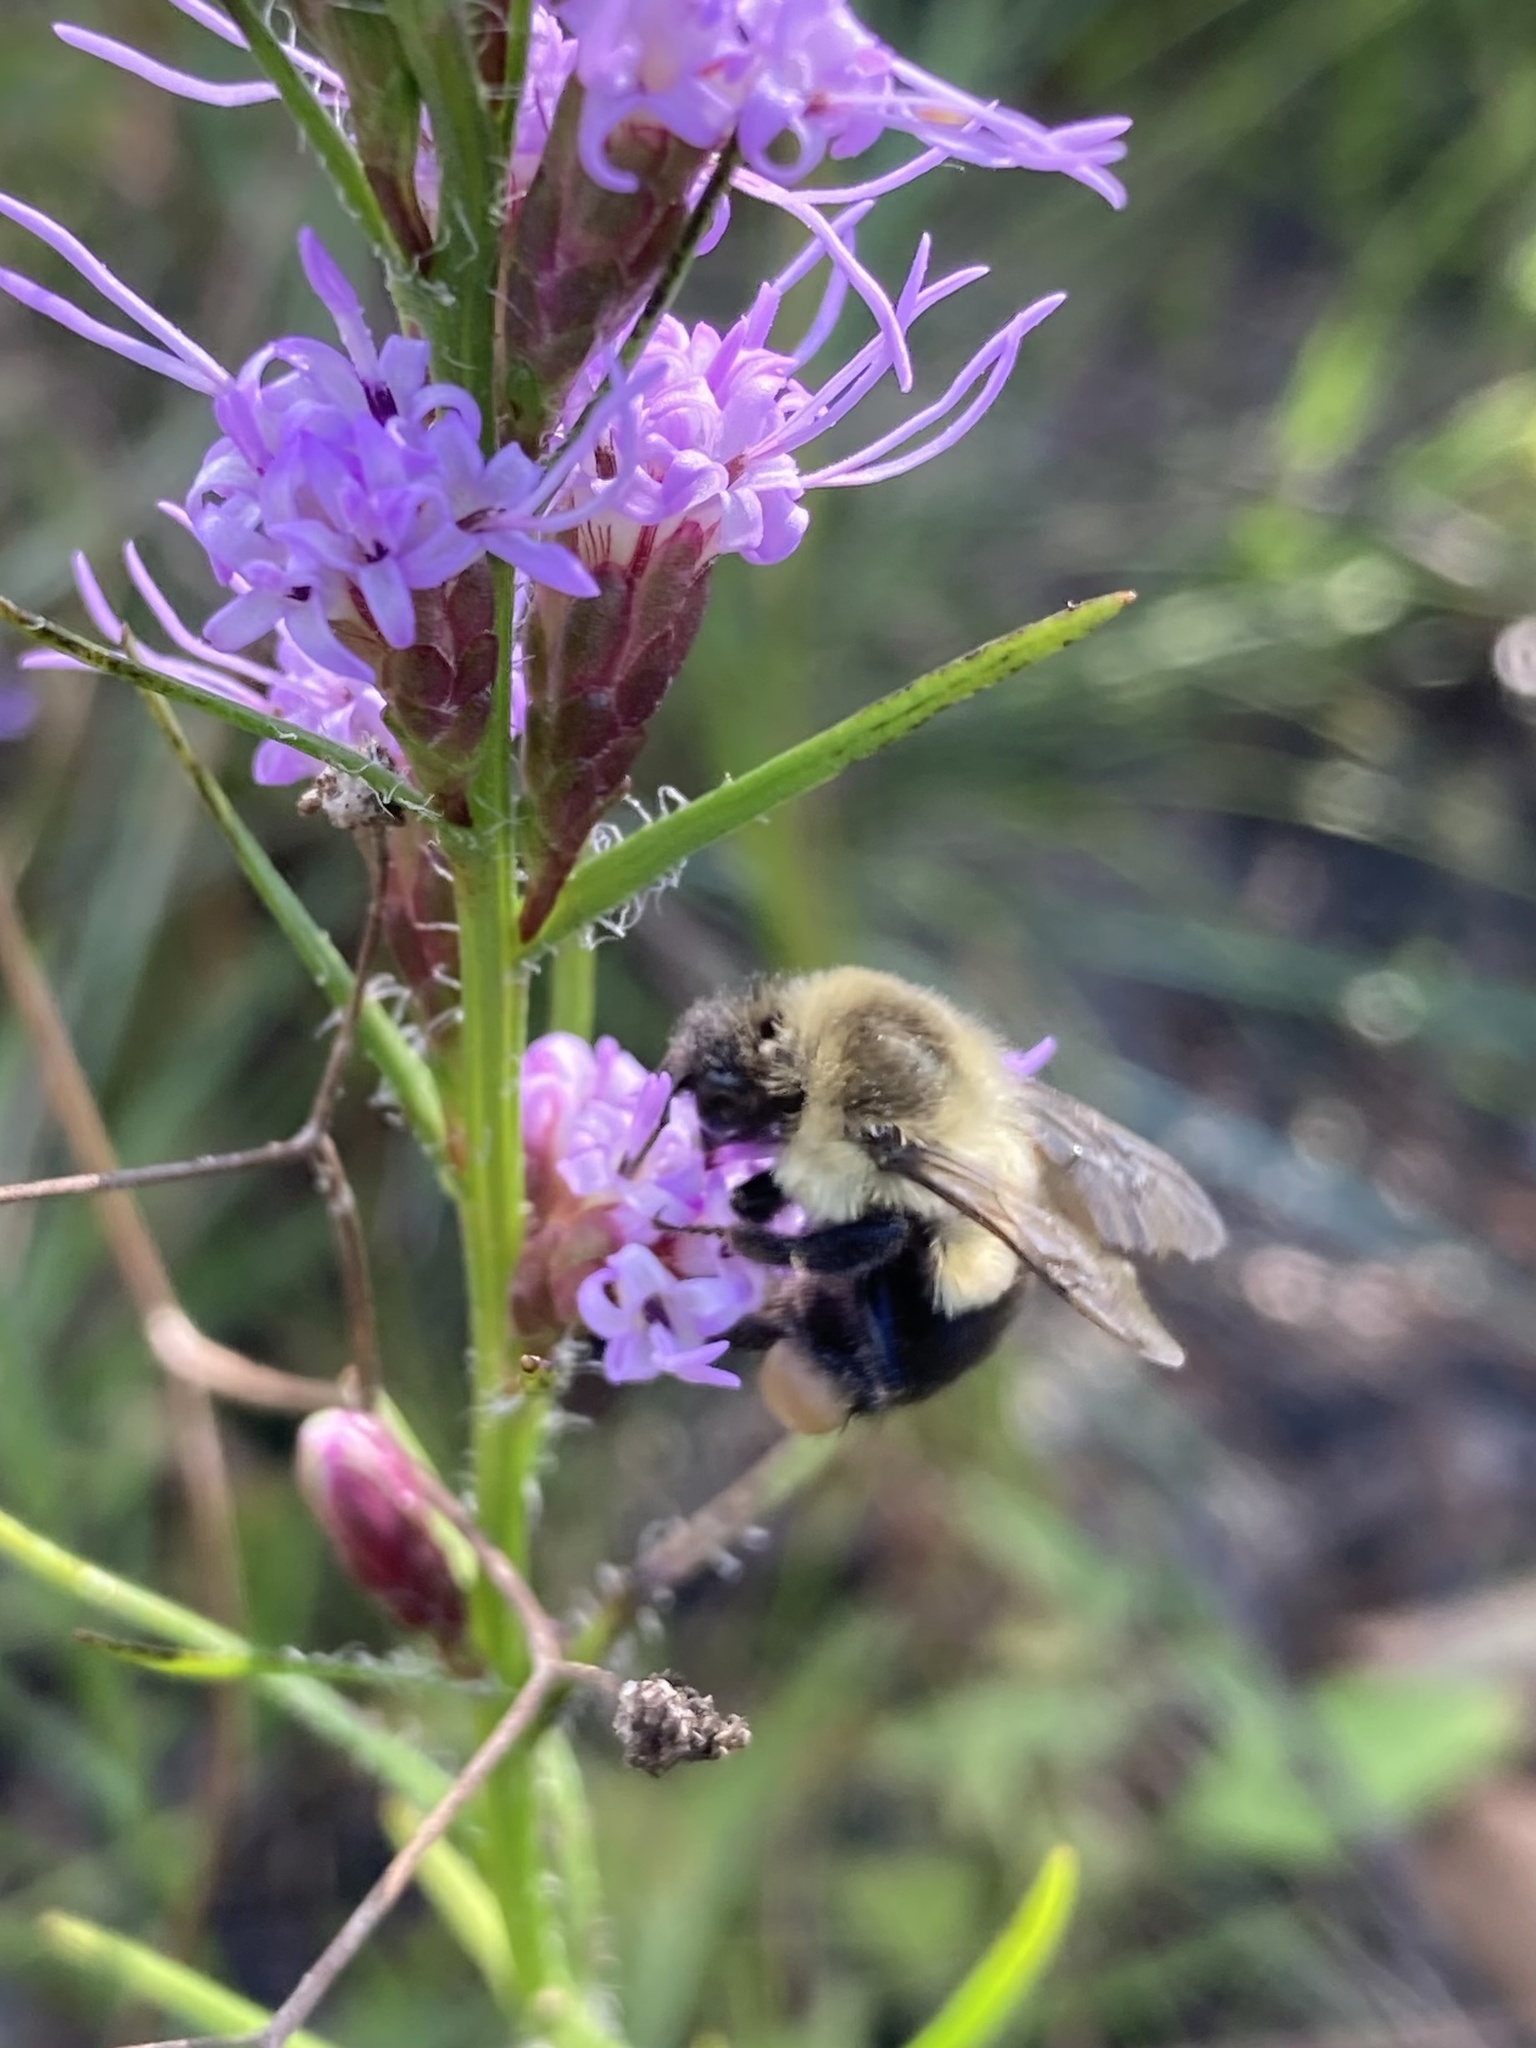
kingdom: Animalia
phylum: Arthropoda
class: Insecta
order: Hymenoptera
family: Apidae
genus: Bombus
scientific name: Bombus impatiens
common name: Common eastern bumble bee
